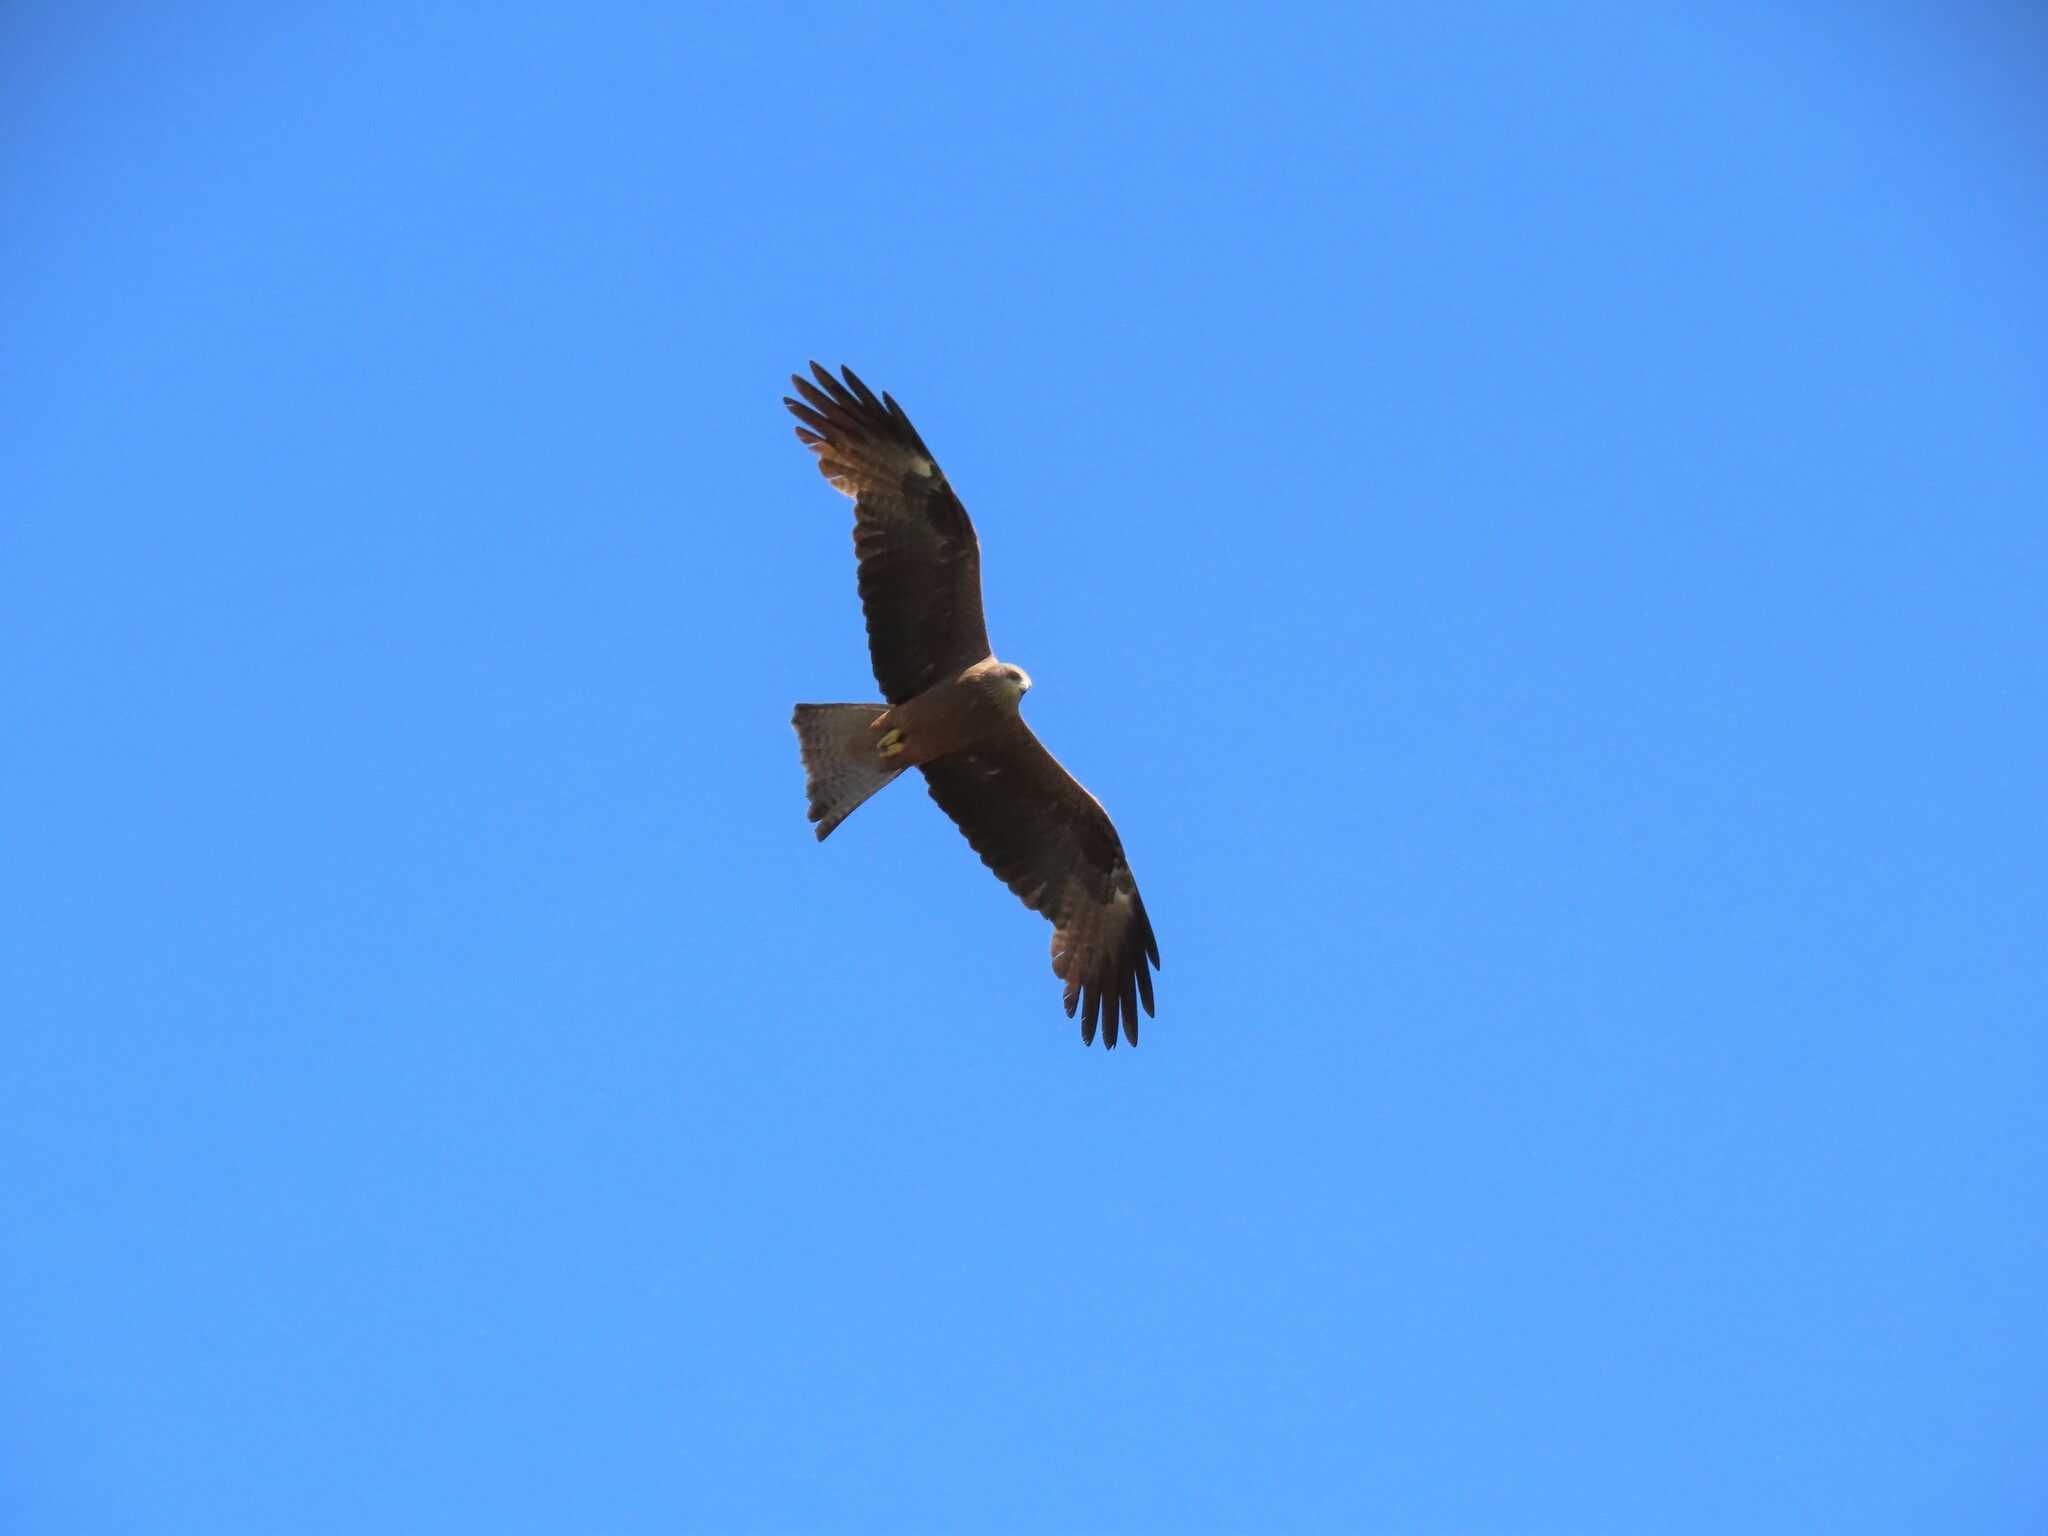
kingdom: Animalia
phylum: Chordata
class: Aves
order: Accipitriformes
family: Accipitridae
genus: Milvus
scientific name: Milvus migrans
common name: Black kite
